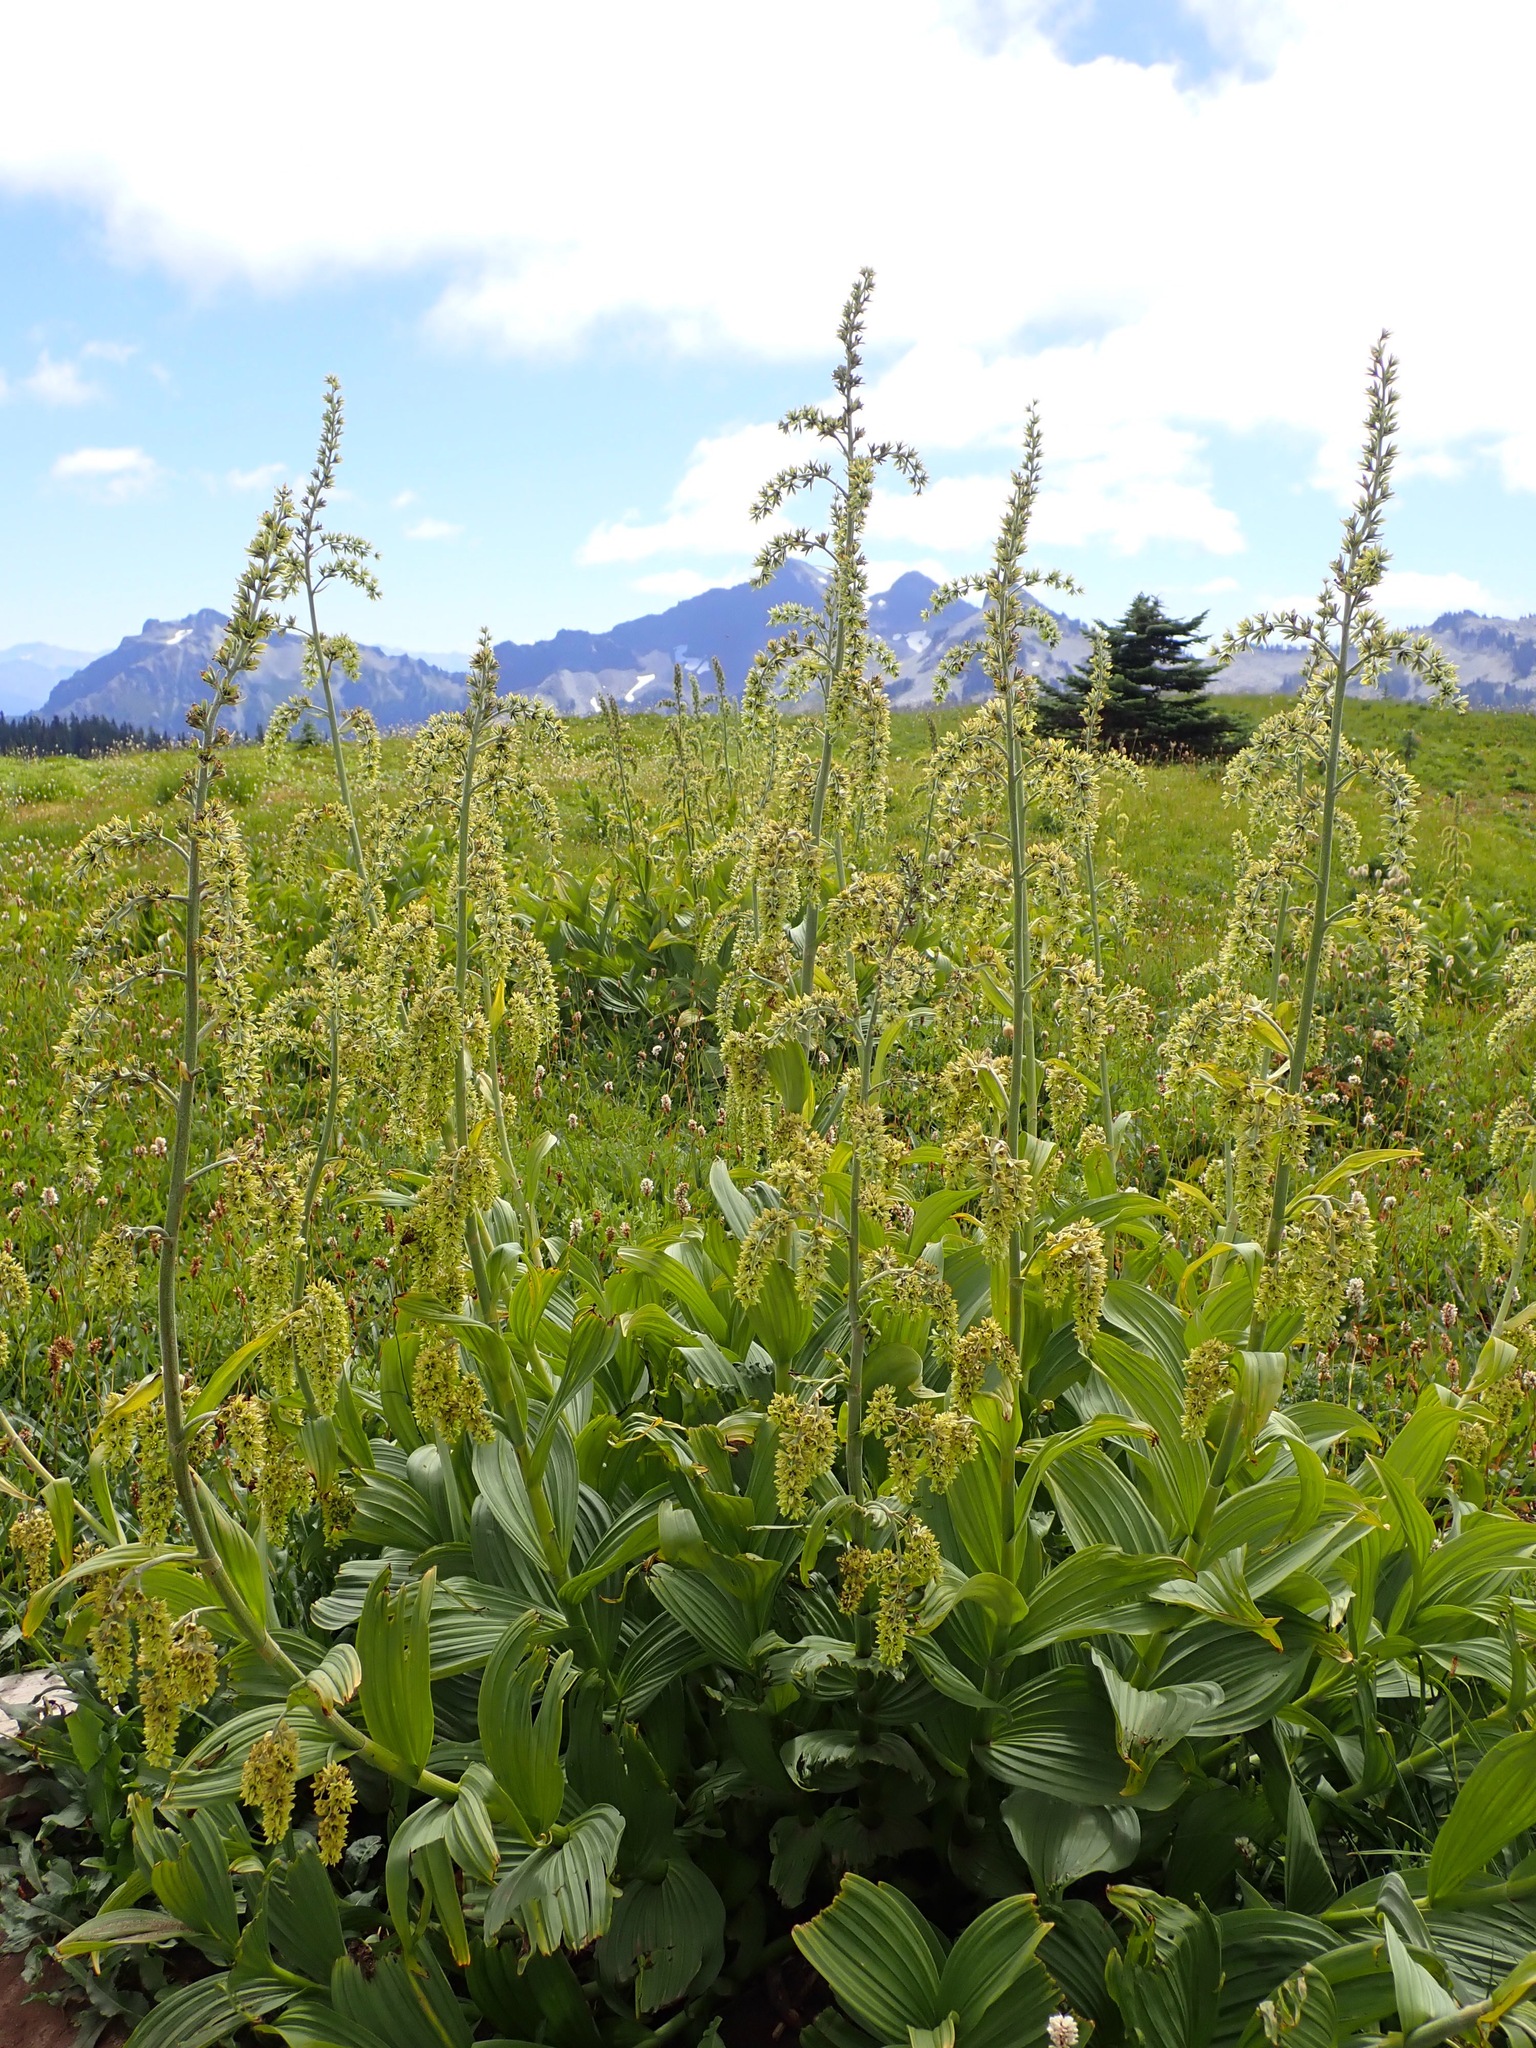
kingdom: Plantae
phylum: Tracheophyta
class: Liliopsida
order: Liliales
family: Melanthiaceae
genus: Veratrum
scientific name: Veratrum viride
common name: American false hellebore
